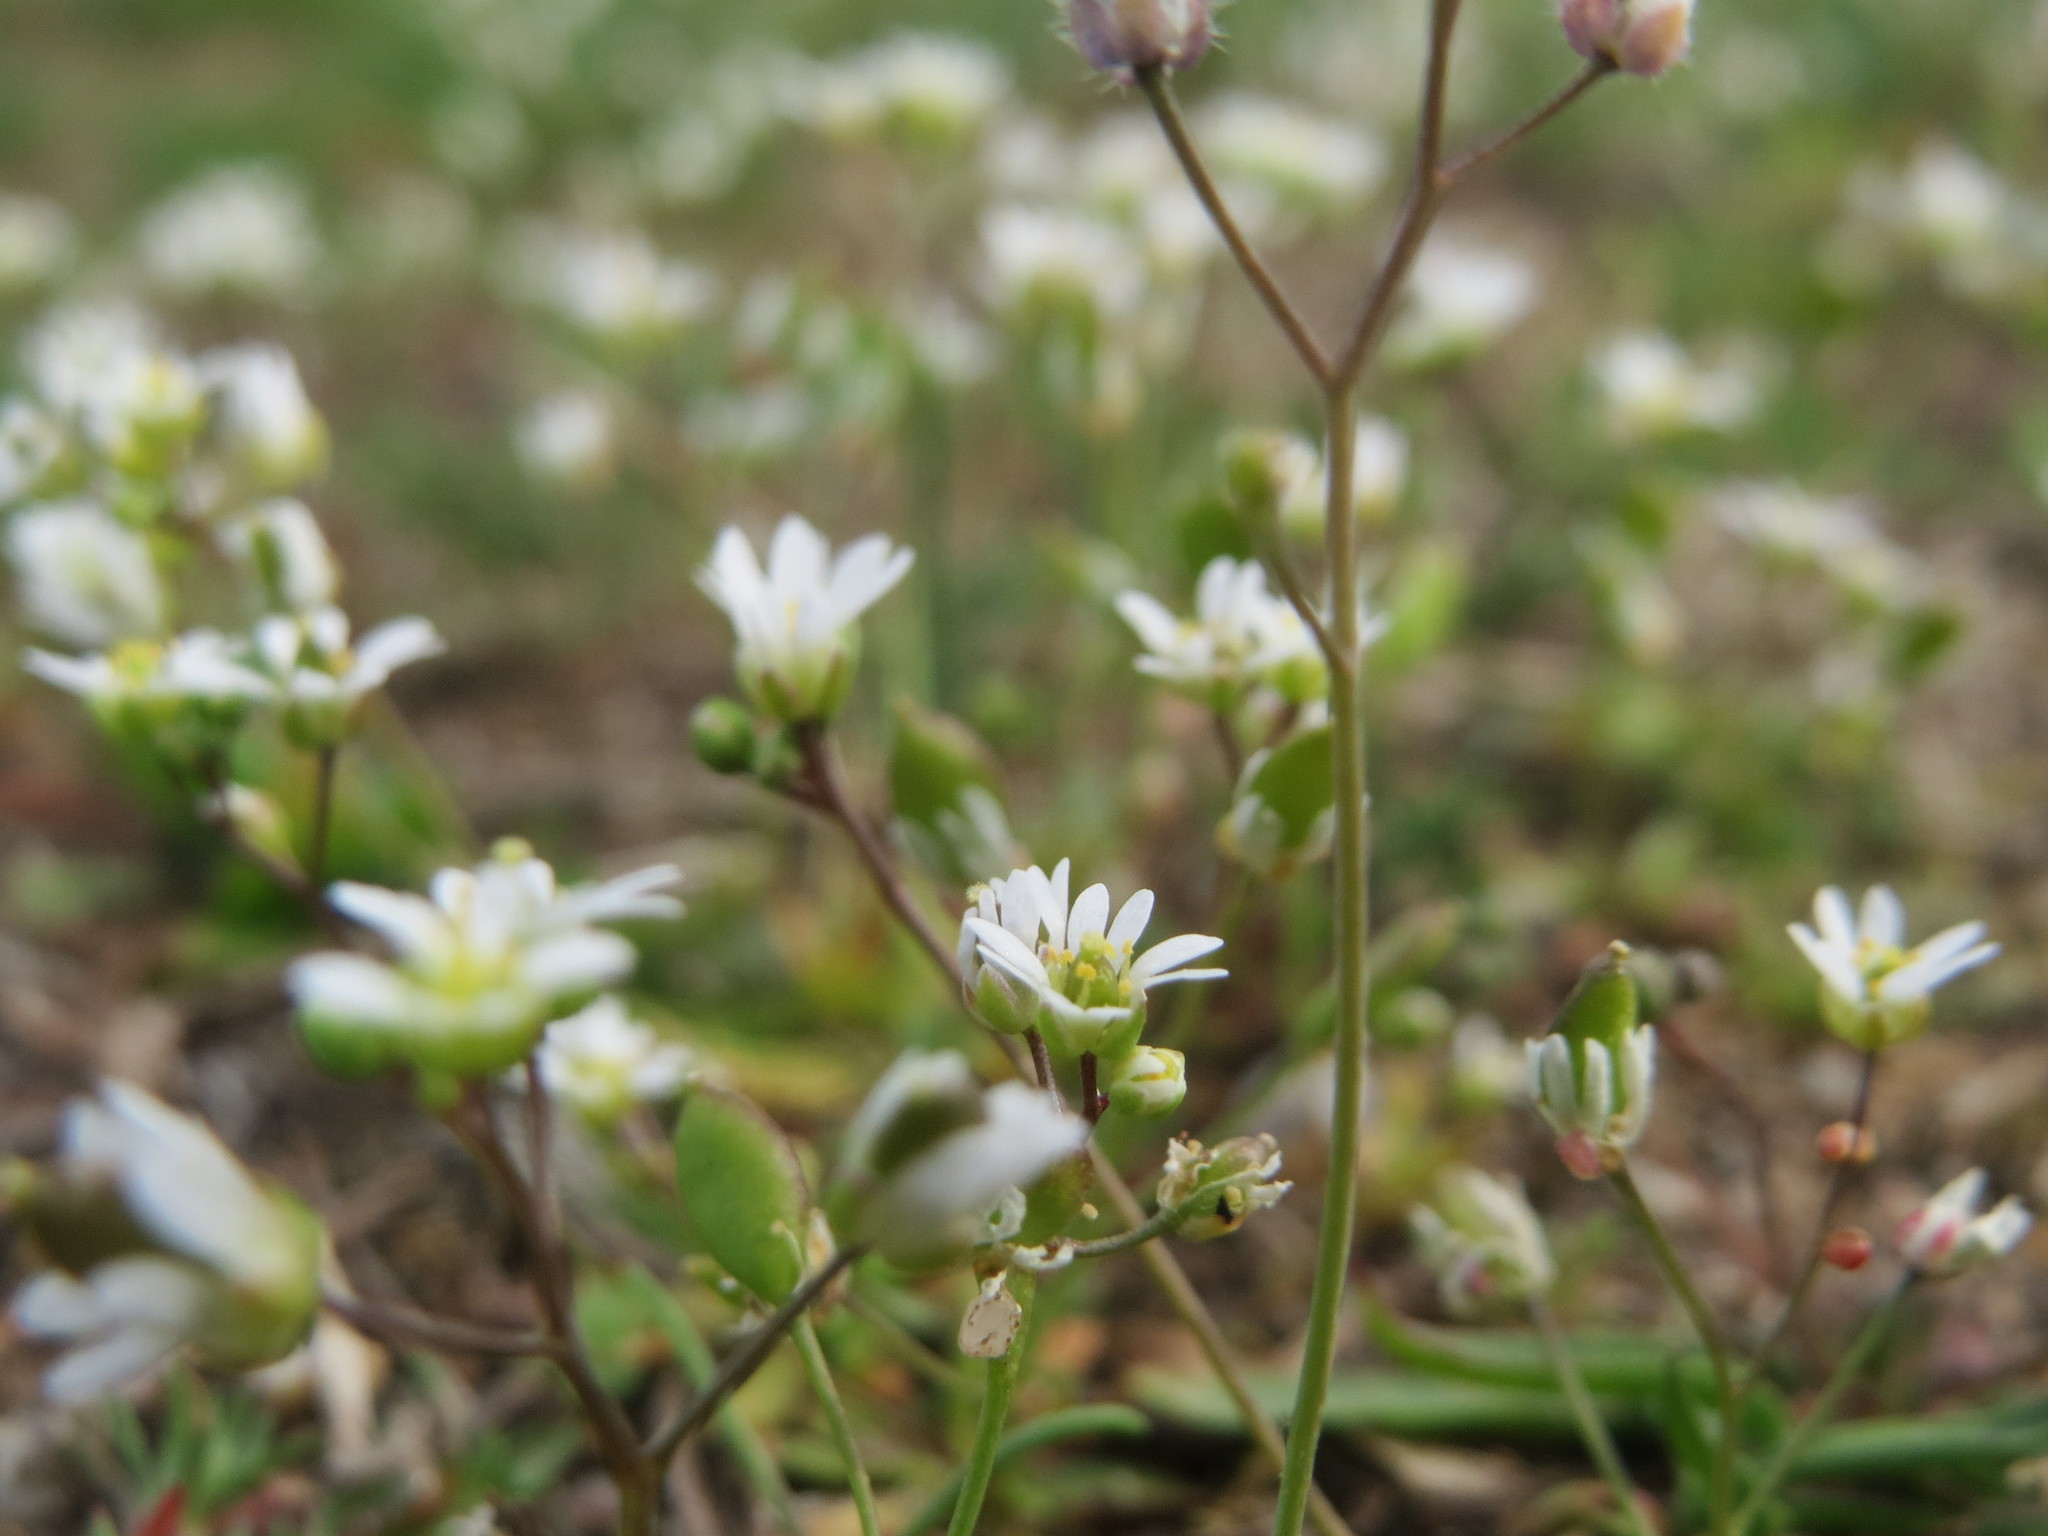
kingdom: Plantae
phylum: Tracheophyta
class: Magnoliopsida
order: Brassicales
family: Brassicaceae
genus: Draba
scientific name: Draba verna
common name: Spring draba
